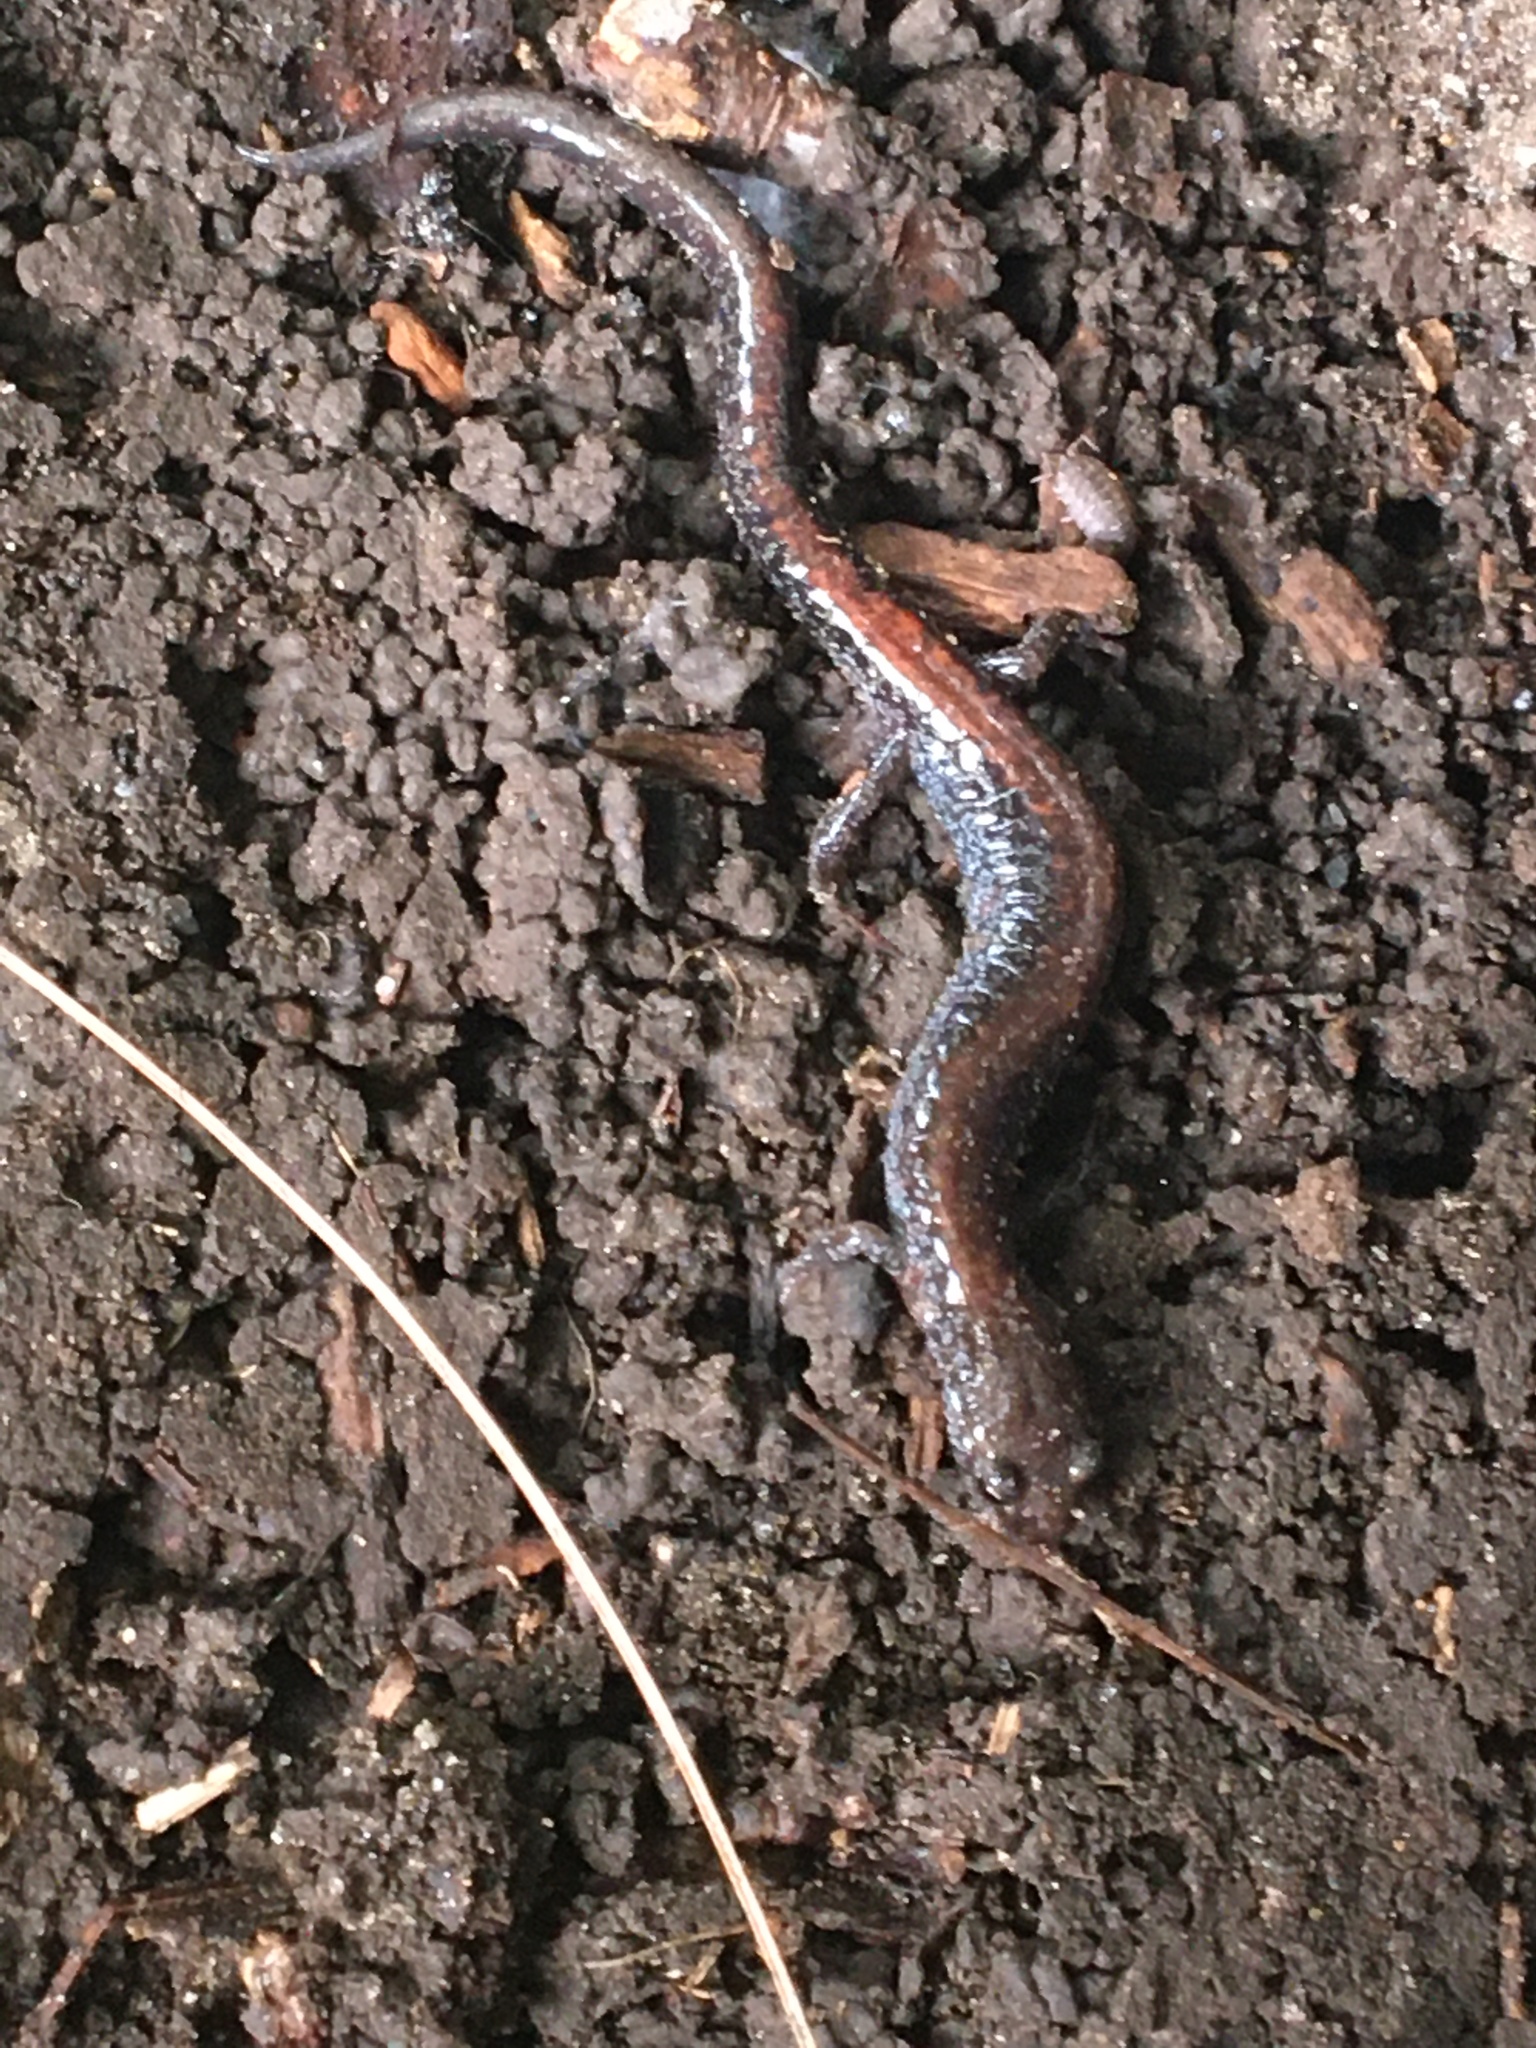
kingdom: Animalia
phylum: Chordata
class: Amphibia
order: Caudata
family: Plethodontidae
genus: Plethodon
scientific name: Plethodon cinereus
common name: Redback salamander
